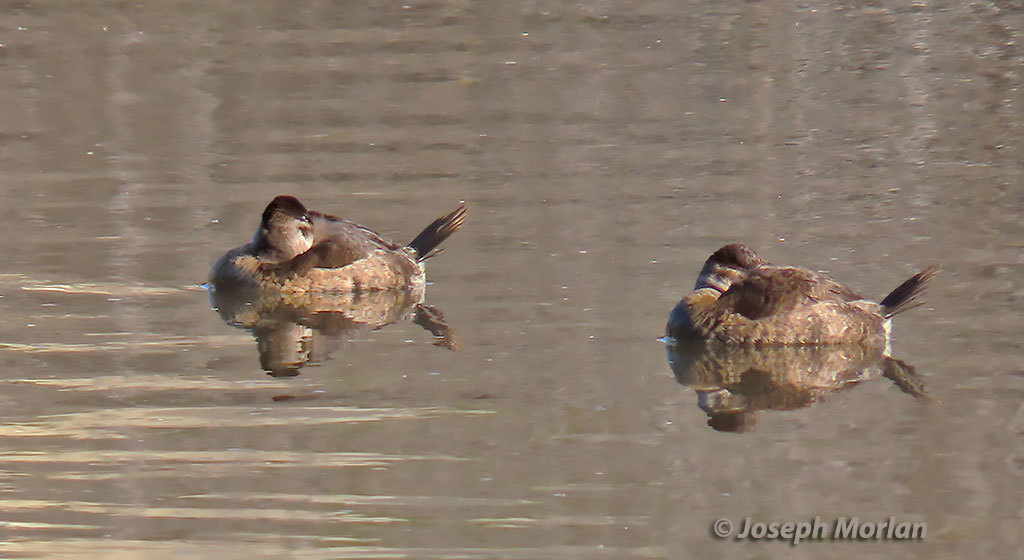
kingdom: Animalia
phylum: Chordata
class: Aves
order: Anseriformes
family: Anatidae
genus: Oxyura
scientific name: Oxyura jamaicensis
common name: Ruddy duck
